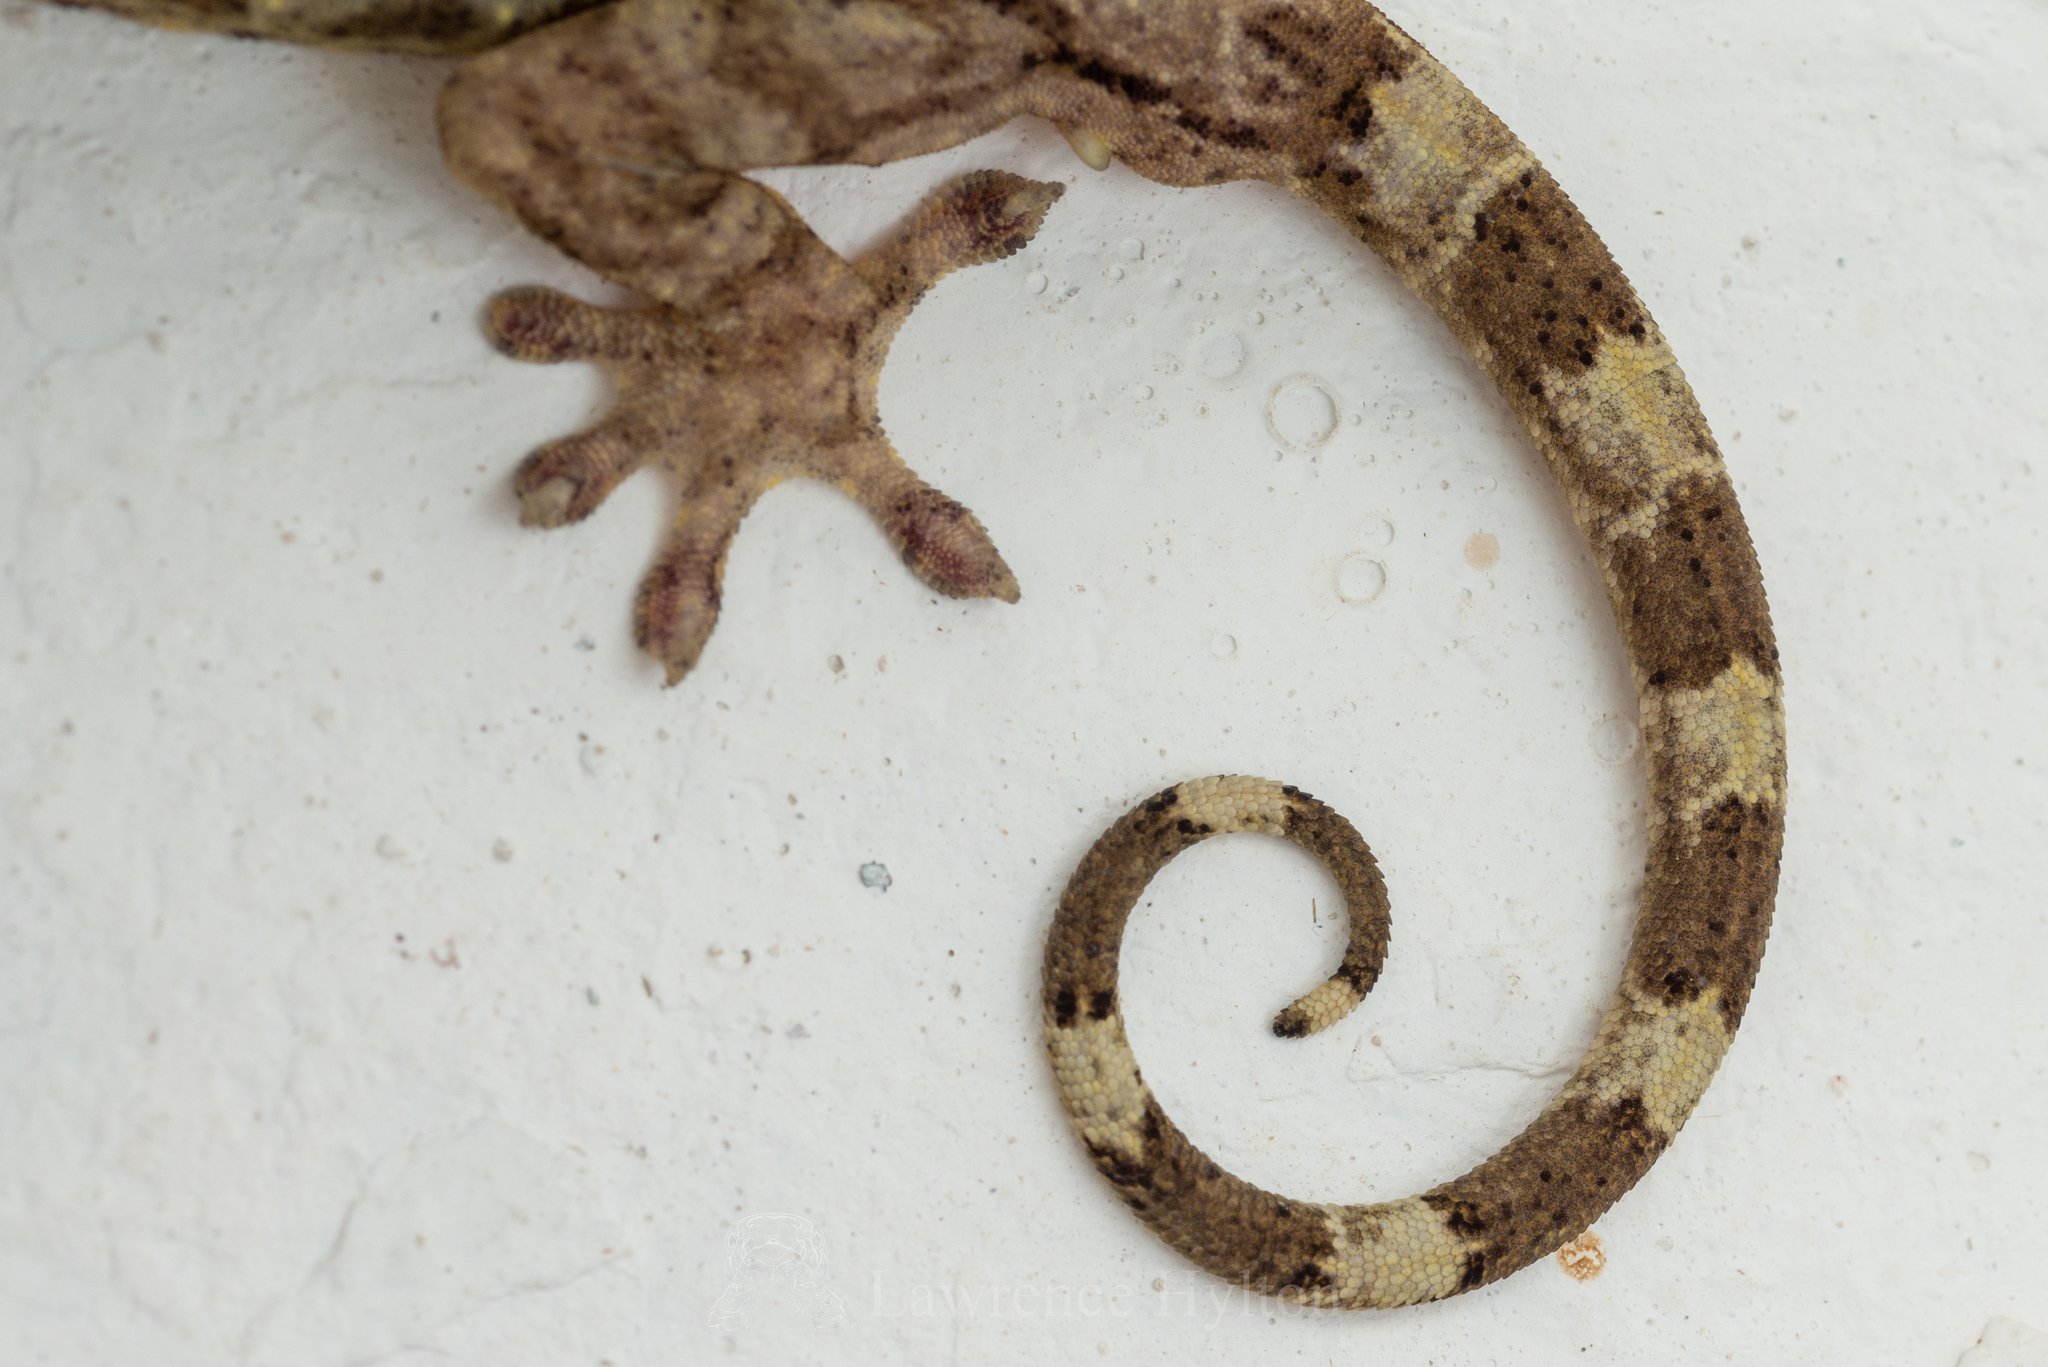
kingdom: Animalia
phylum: Chordata
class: Squamata
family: Gekkonidae
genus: Gekko
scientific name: Gekko chinensis
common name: Gray's chinese gecko
